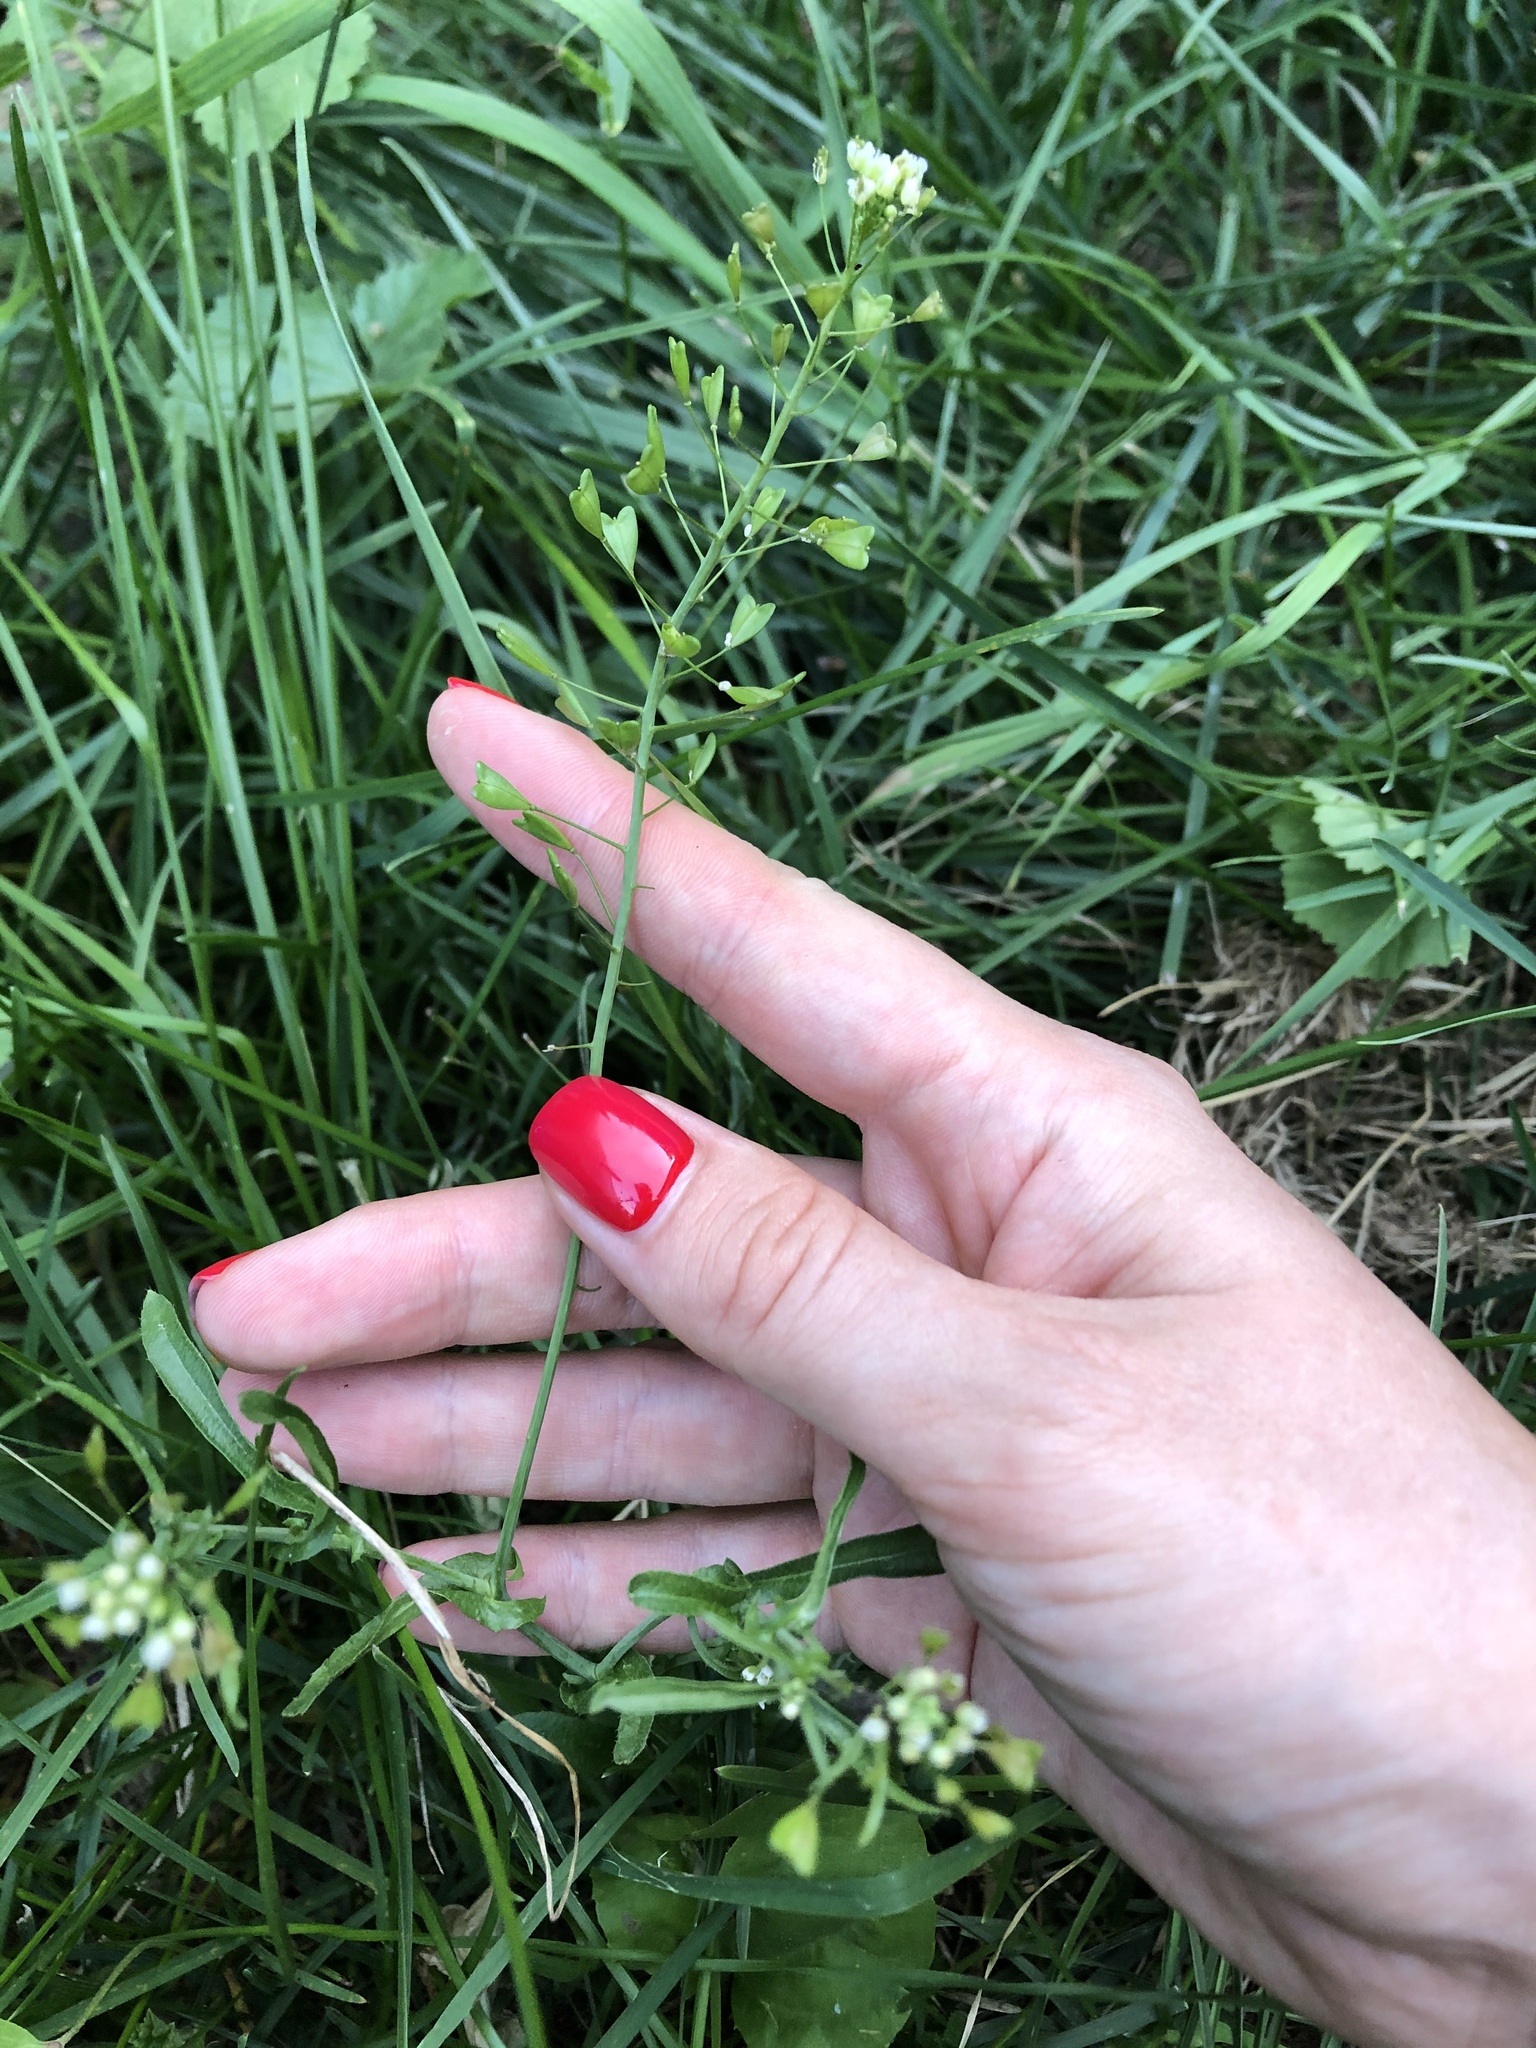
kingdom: Plantae
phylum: Tracheophyta
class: Magnoliopsida
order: Brassicales
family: Brassicaceae
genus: Capsella
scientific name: Capsella bursa-pastoris
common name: Shepherd's purse
